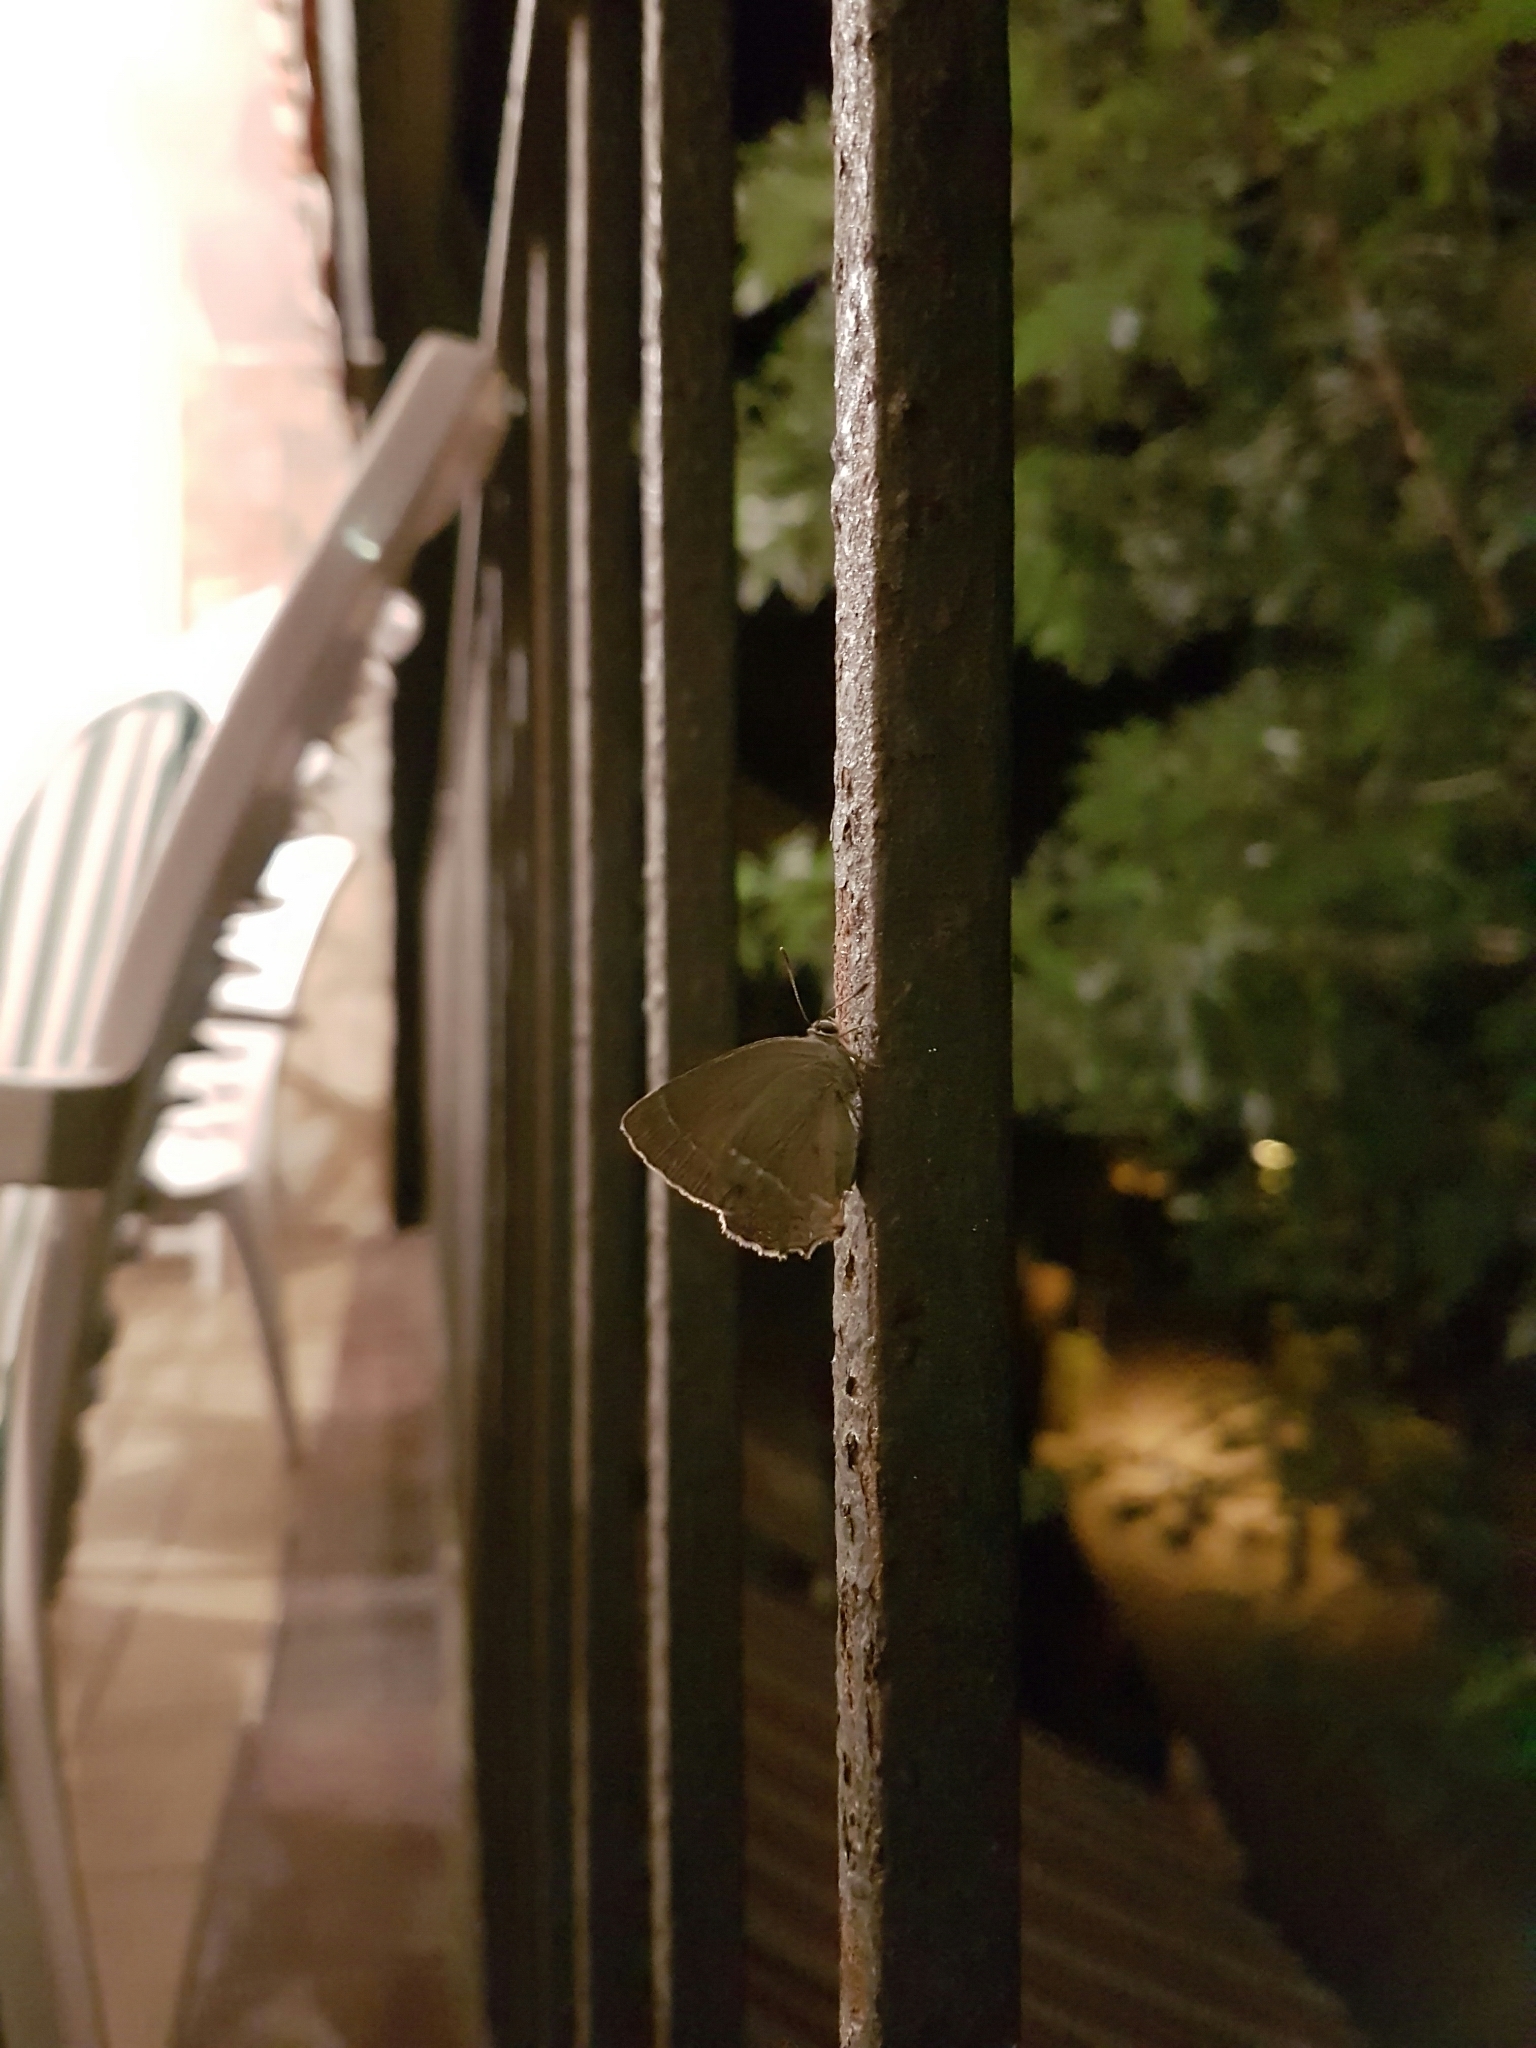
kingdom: Animalia
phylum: Arthropoda
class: Insecta
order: Lepidoptera
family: Lycaenidae
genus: Quercusia
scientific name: Quercusia quercus
